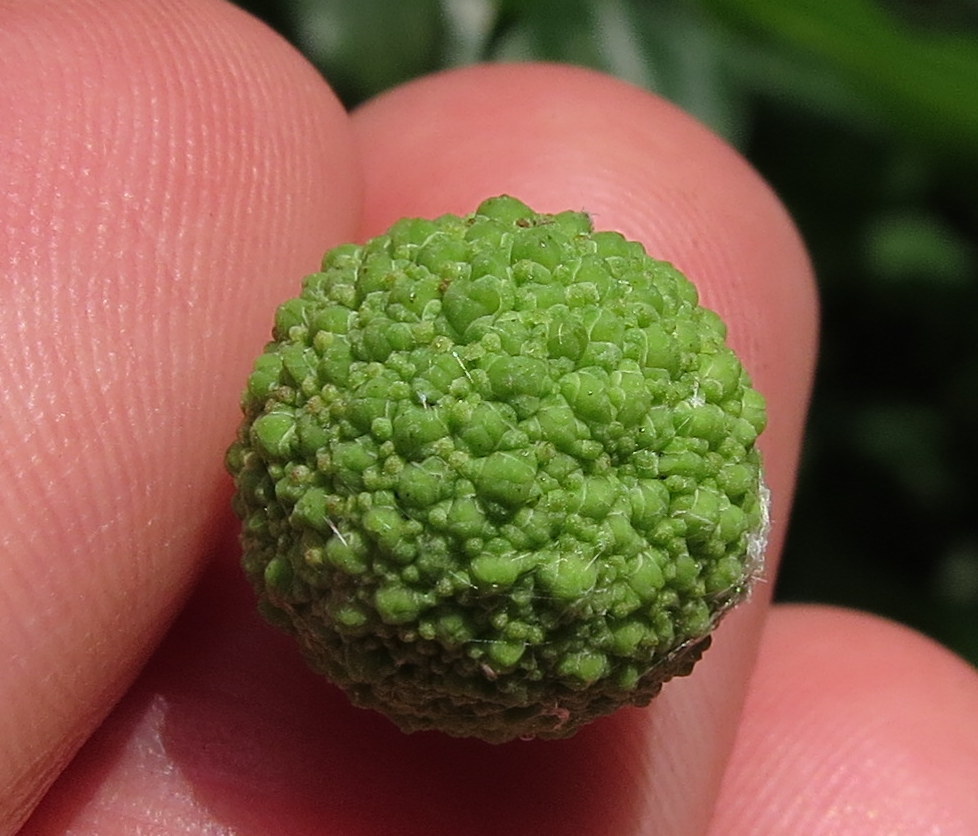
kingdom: Plantae
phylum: Tracheophyta
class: Magnoliopsida
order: Gentianales
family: Rubiaceae
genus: Cephalanthus
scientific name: Cephalanthus occidentalis
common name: Button-willow
